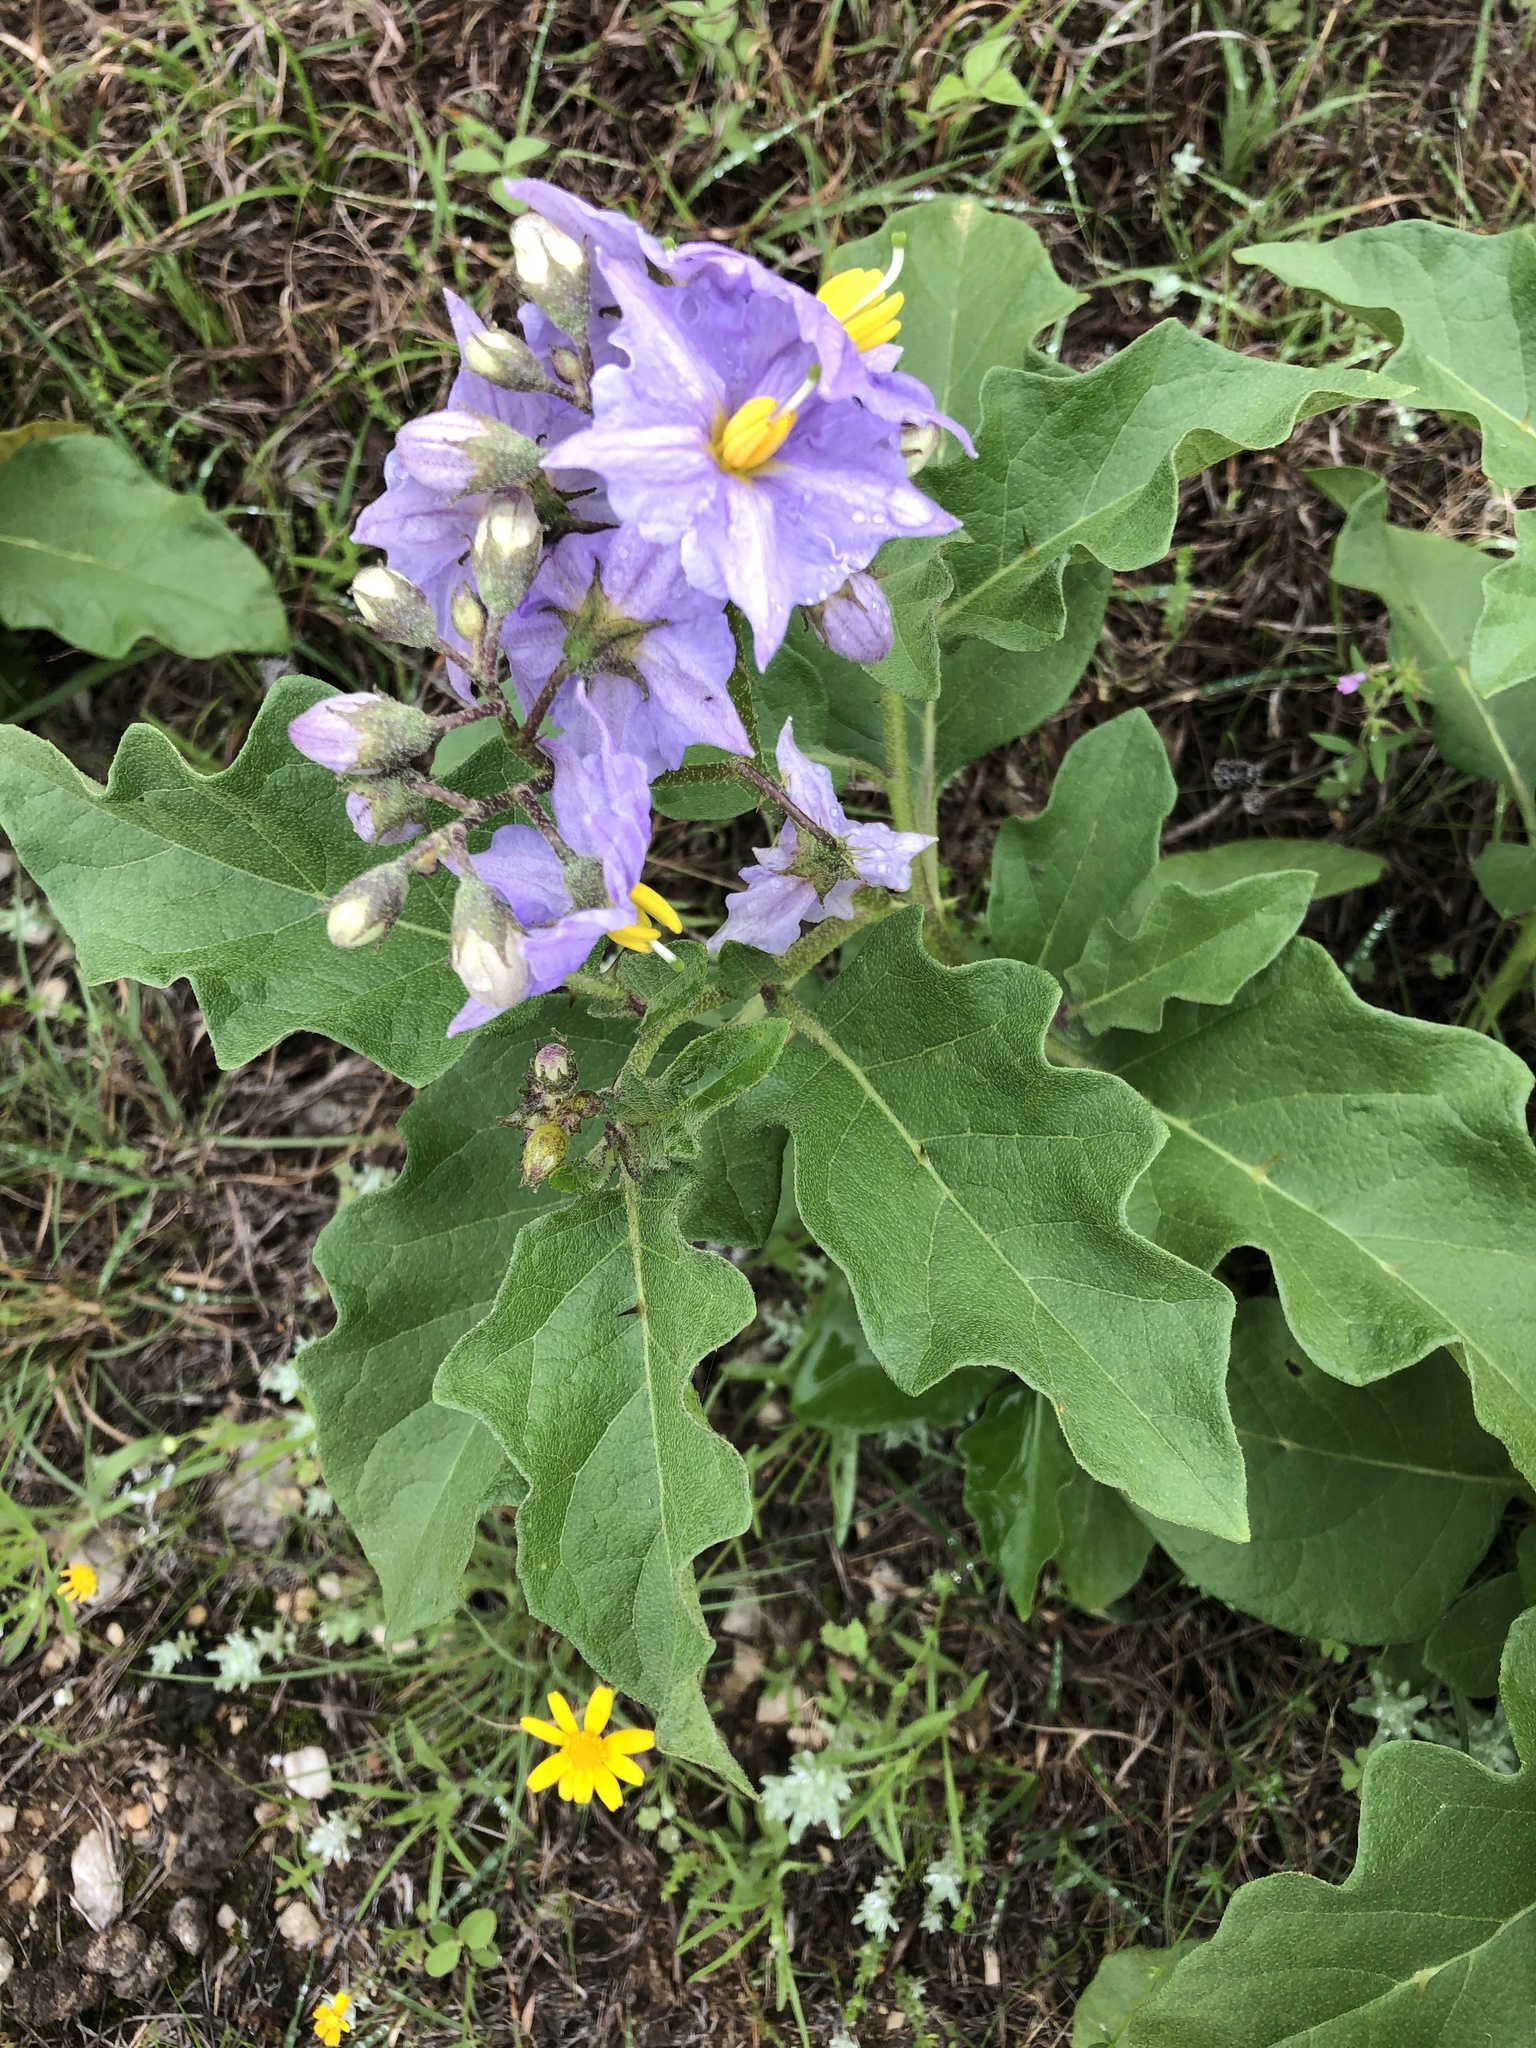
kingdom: Plantae
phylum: Tracheophyta
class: Magnoliopsida
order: Solanales
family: Solanaceae
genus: Solanum
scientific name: Solanum dimidiatum
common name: Carolina horse-nettle
